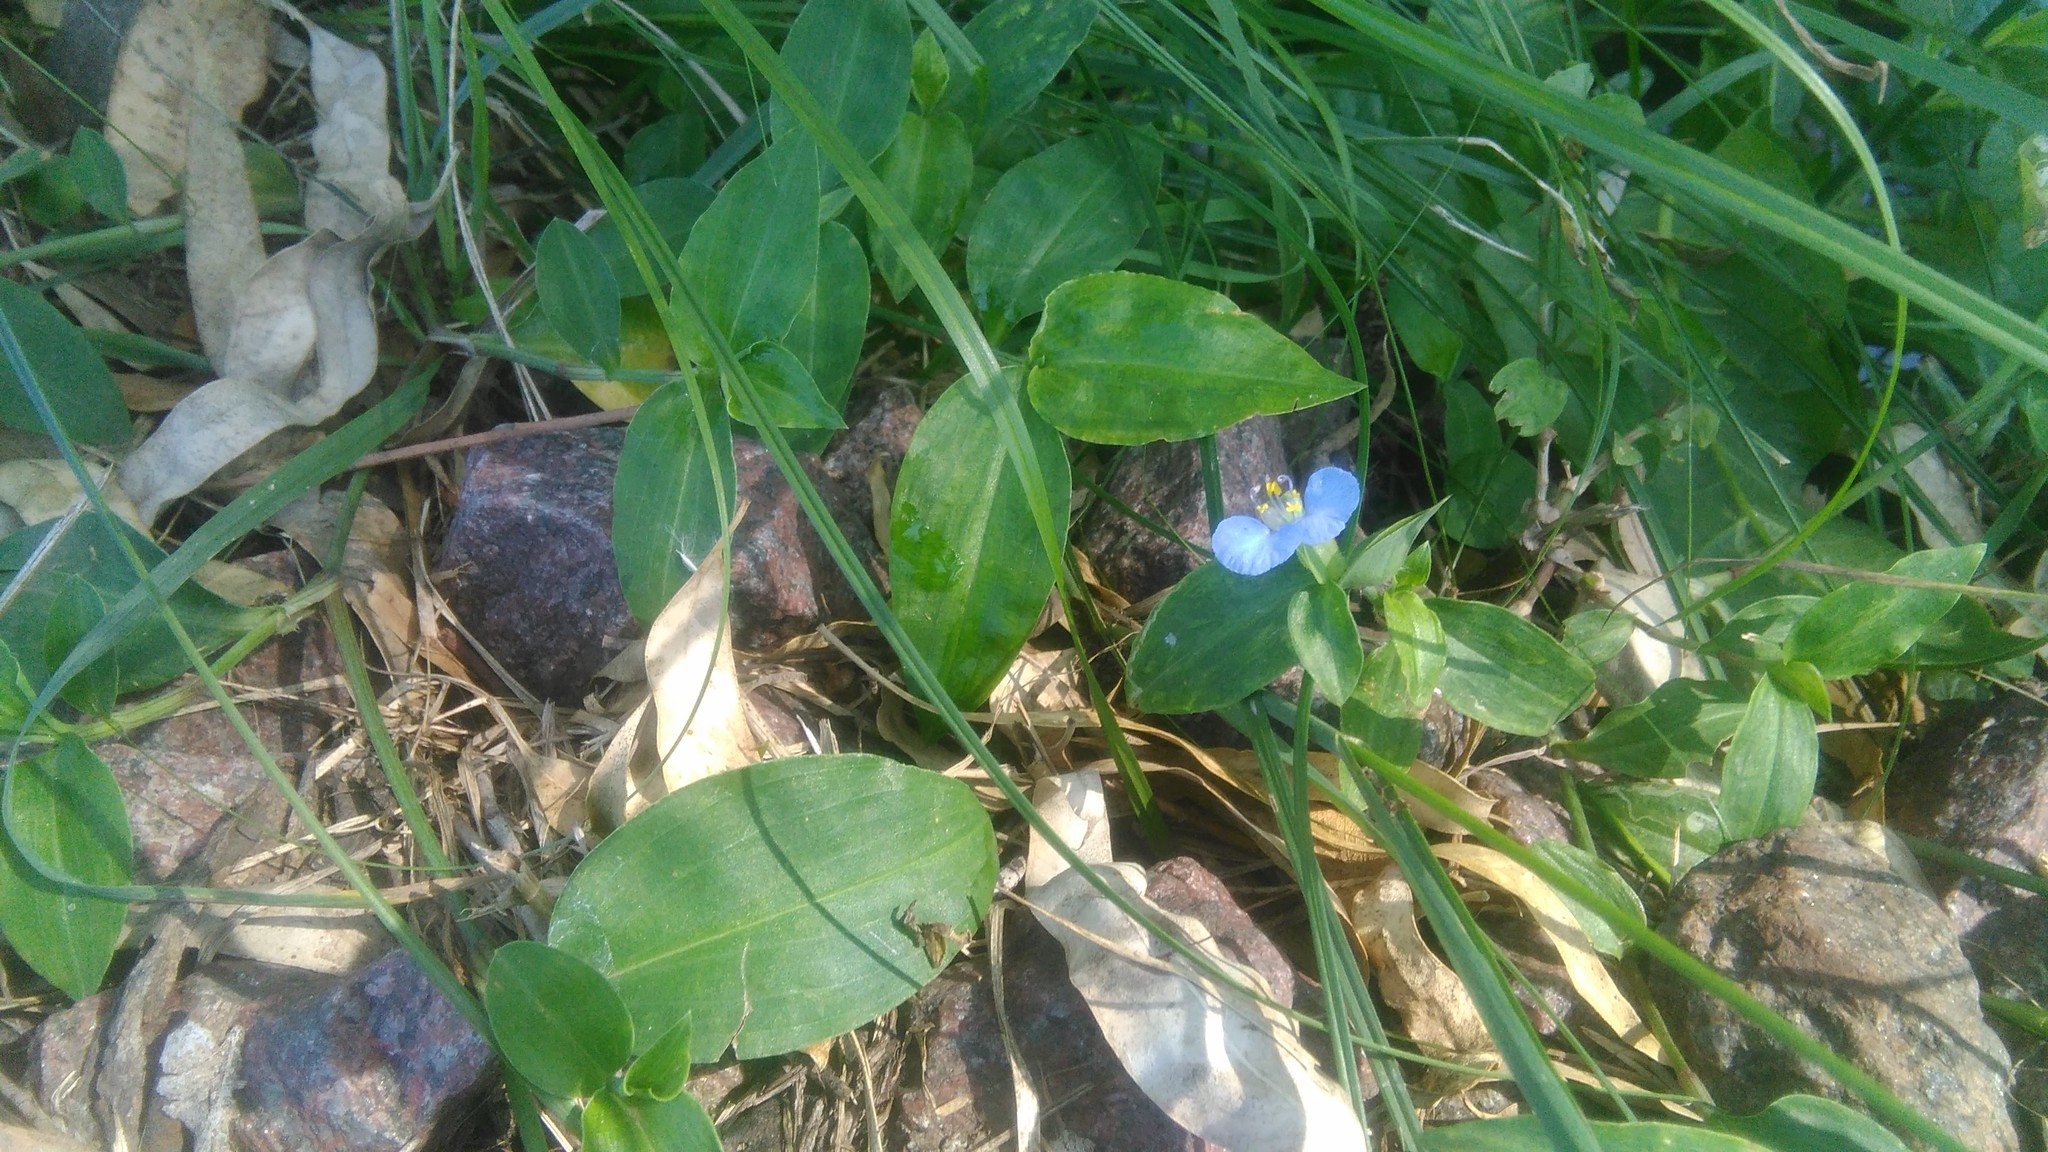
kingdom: Plantae
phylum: Tracheophyta
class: Liliopsida
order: Commelinales
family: Commelinaceae
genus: Commelina
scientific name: Commelina erecta
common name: Blousel blommetjie
